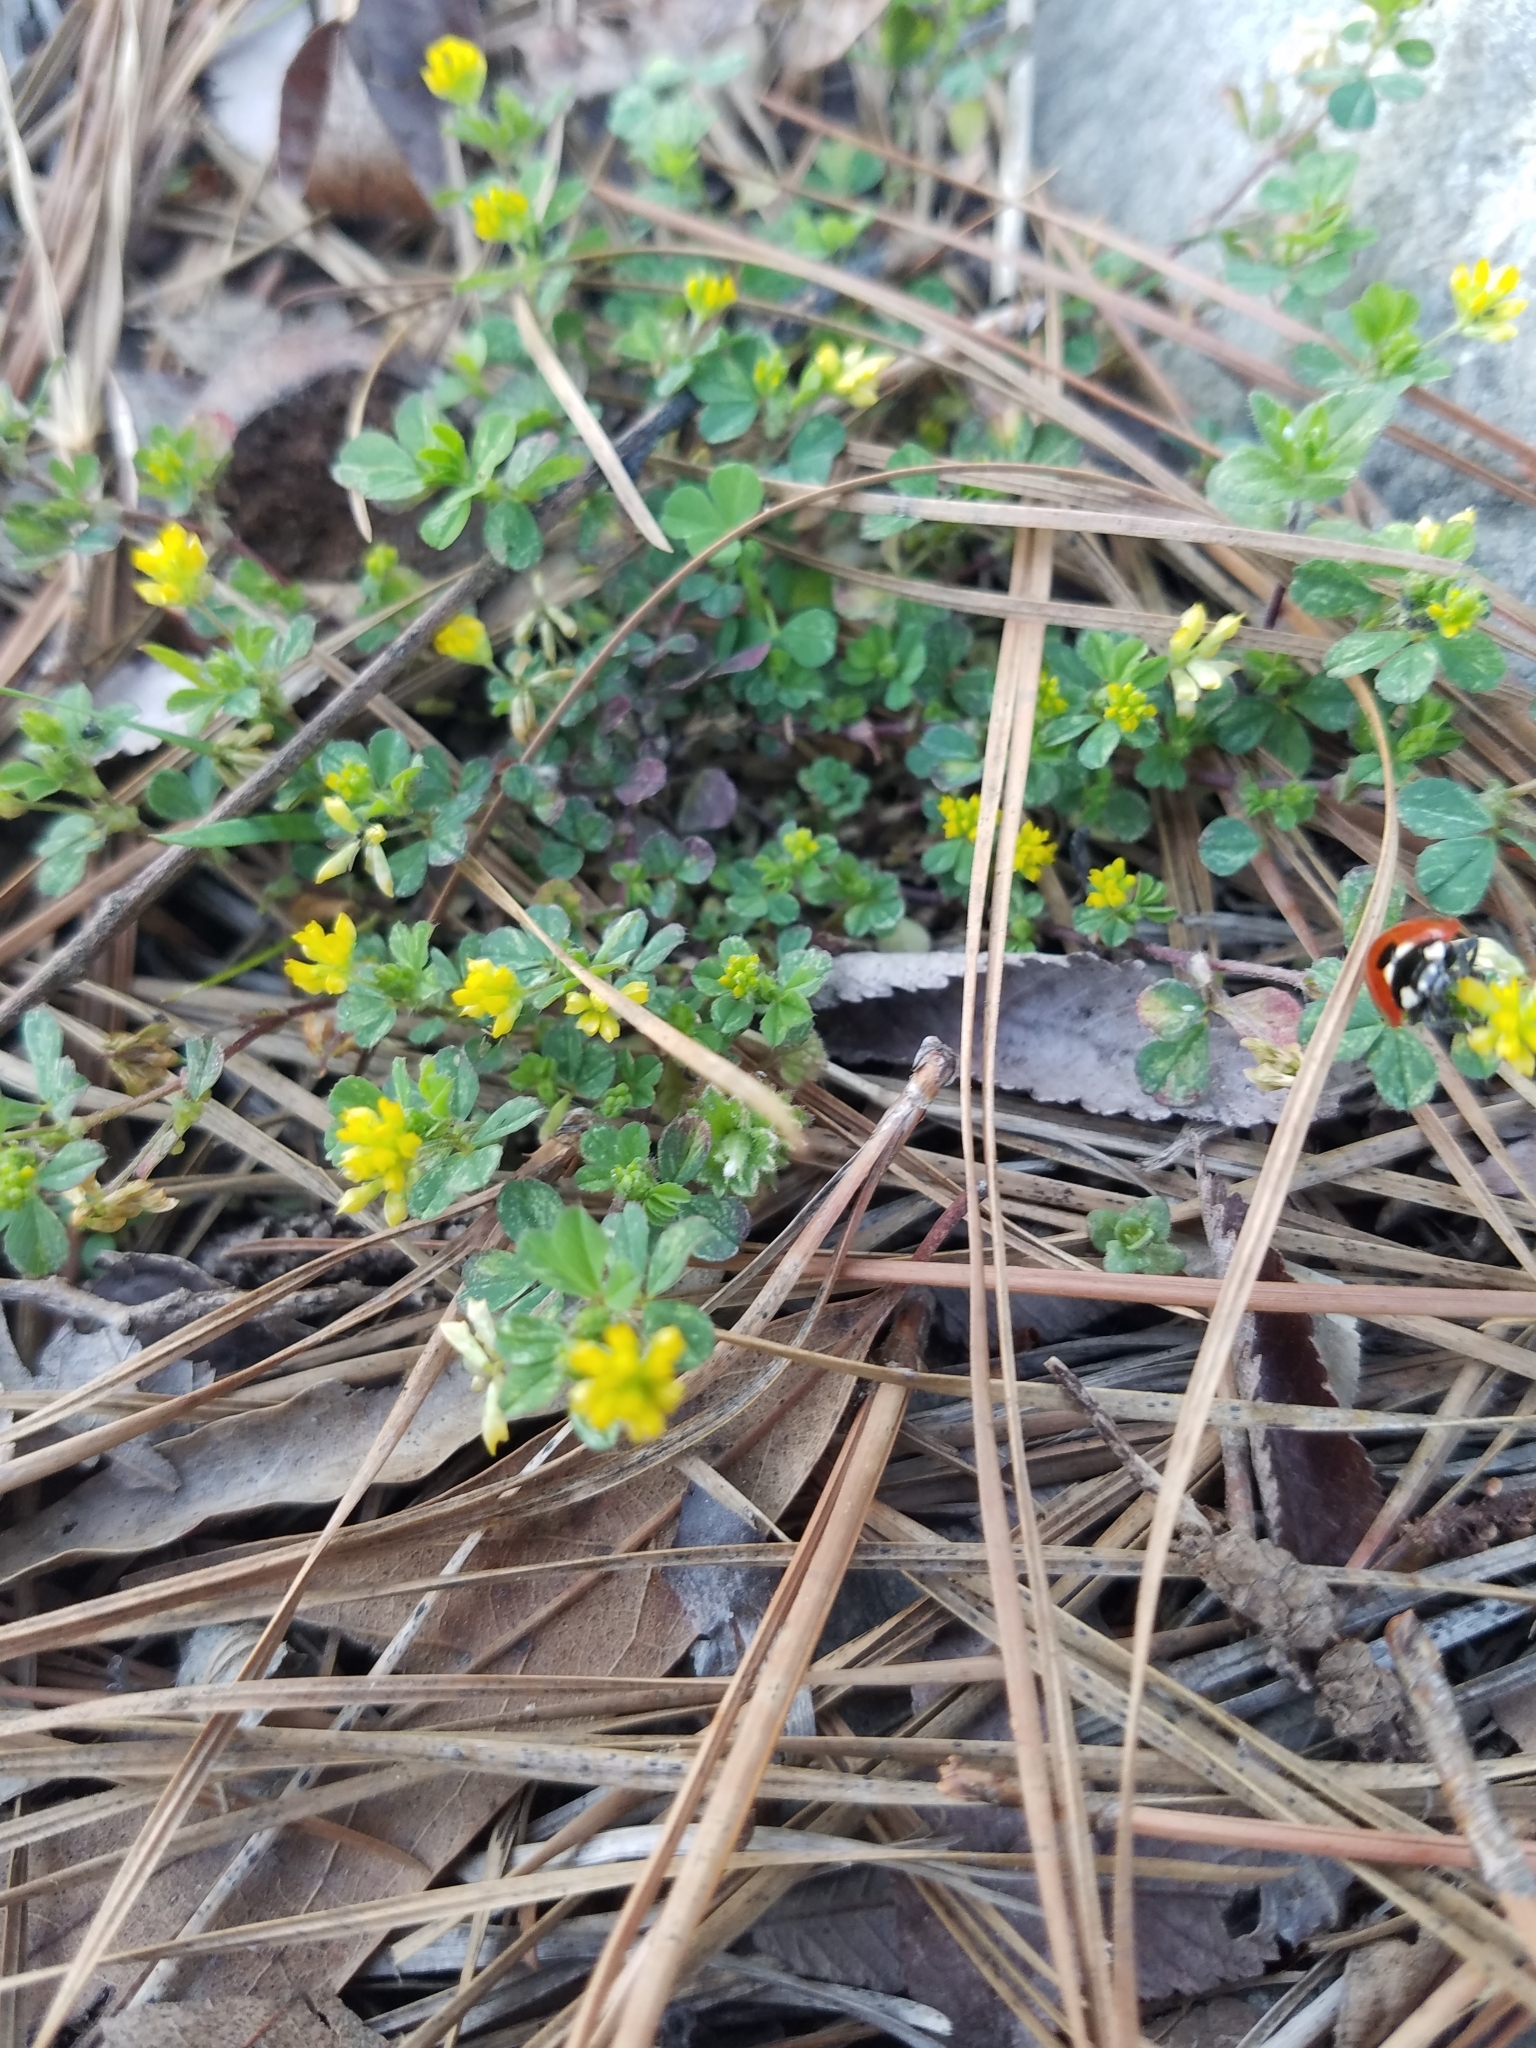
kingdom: Plantae
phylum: Tracheophyta
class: Magnoliopsida
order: Fabales
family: Fabaceae
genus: Trifolium
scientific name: Trifolium dubium
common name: Suckling clover
